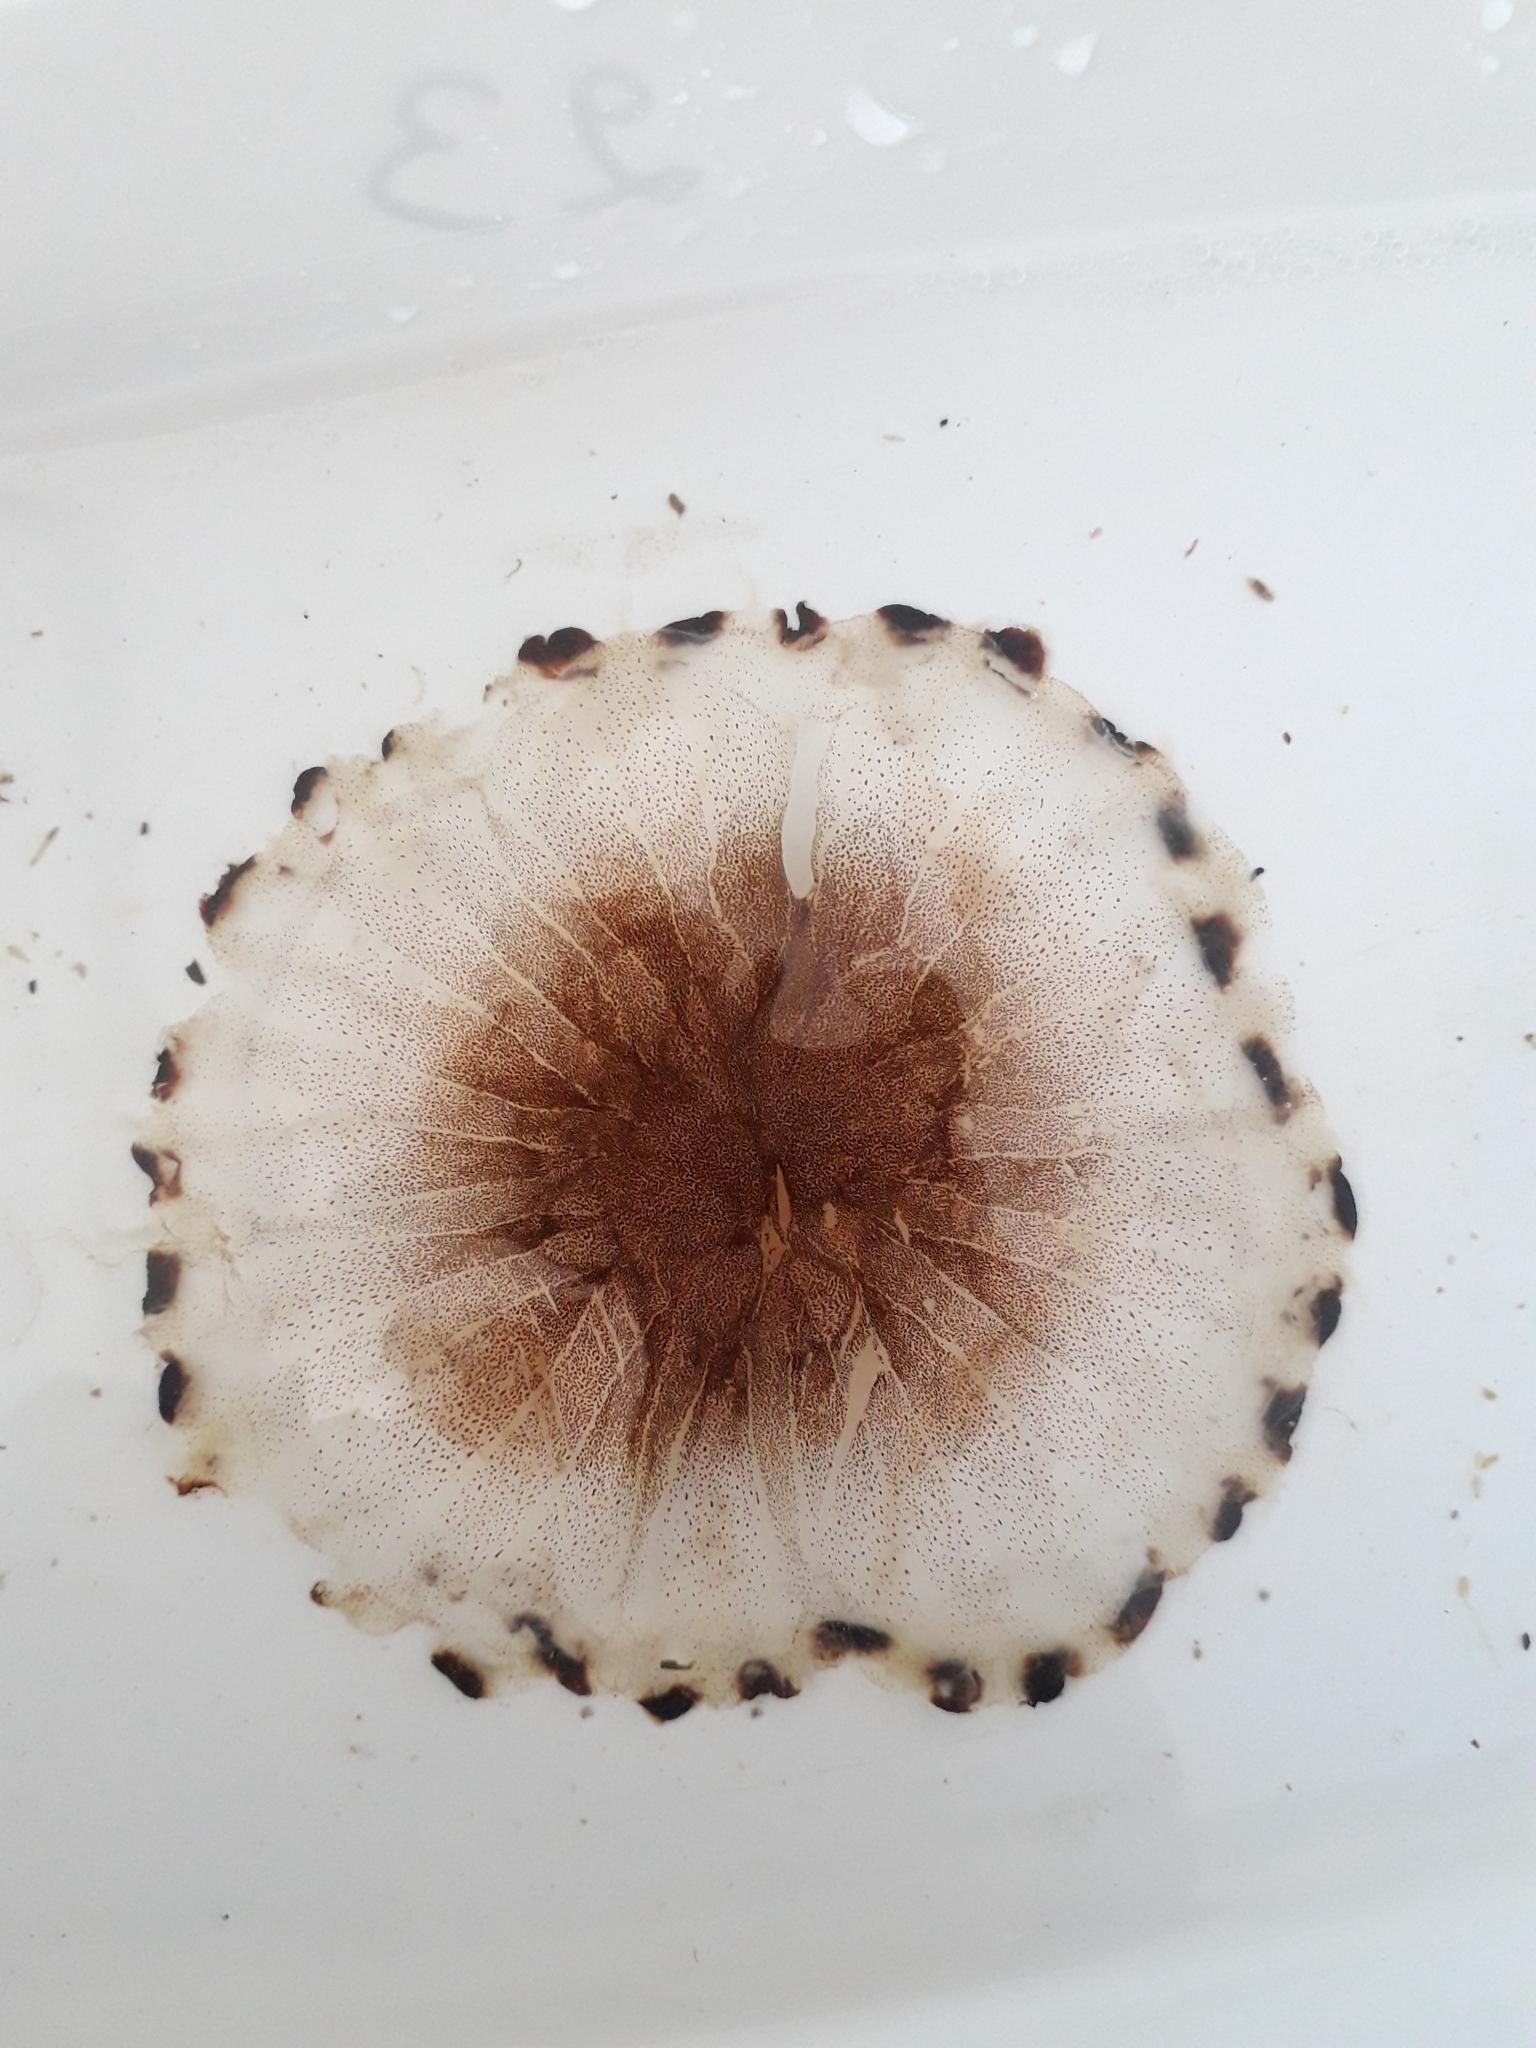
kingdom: Animalia
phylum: Cnidaria
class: Scyphozoa
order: Semaeostomeae
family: Pelagiidae
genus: Chrysaora
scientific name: Chrysaora hysoscella
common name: Compass jellyfish
